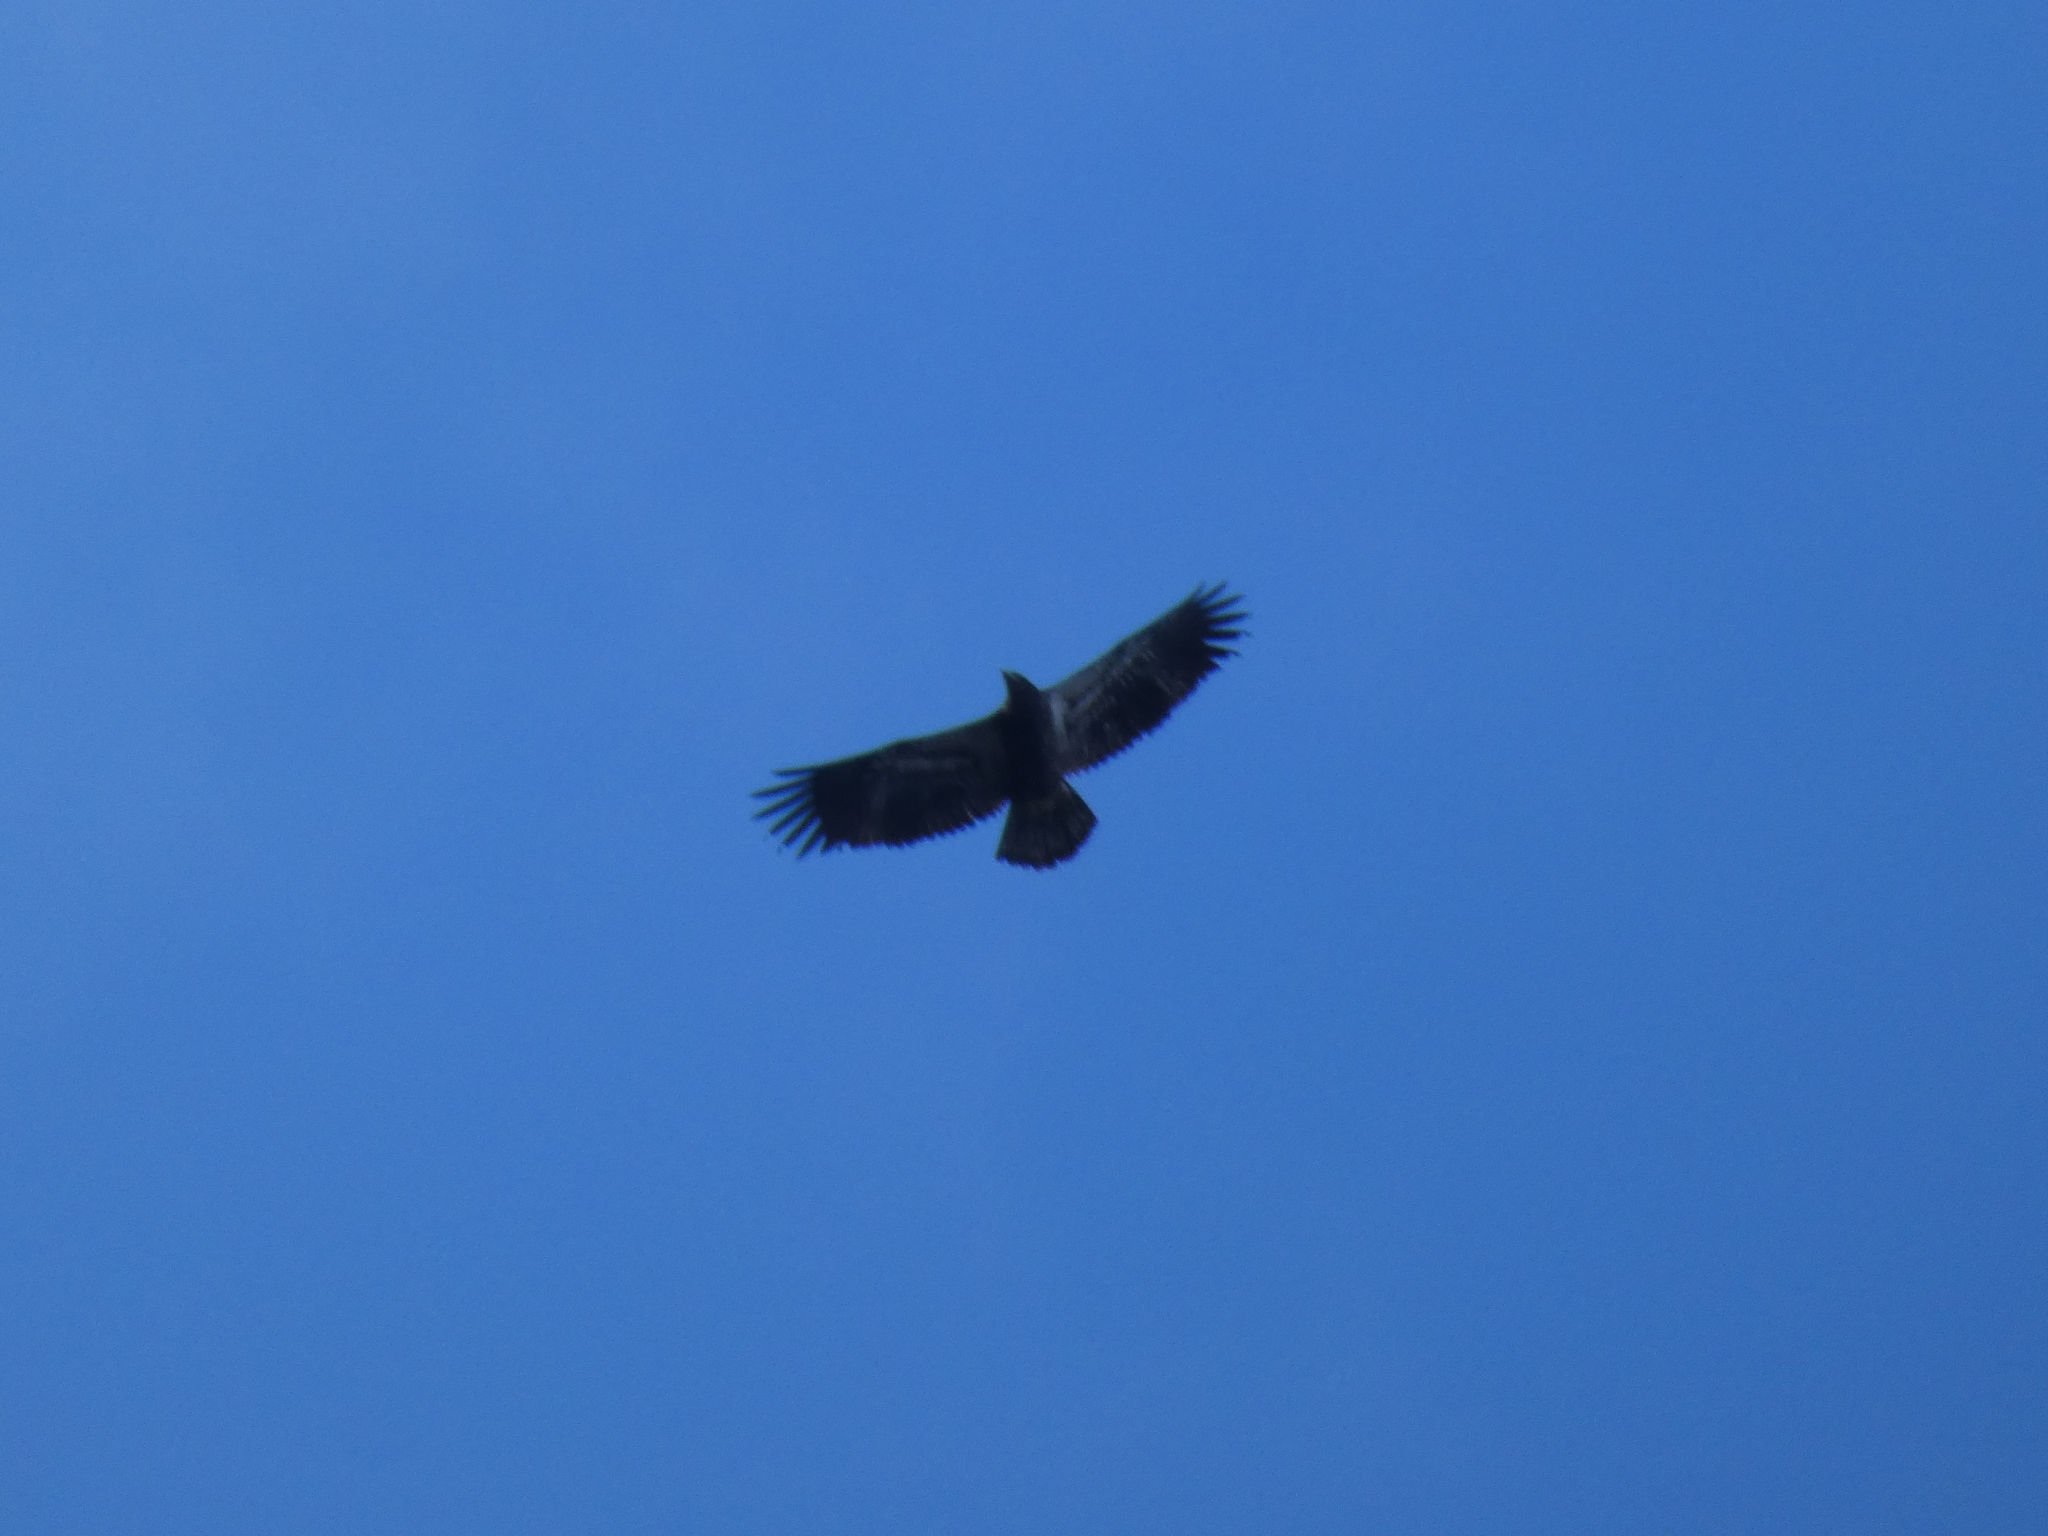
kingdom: Animalia
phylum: Chordata
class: Aves
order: Accipitriformes
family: Accipitridae
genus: Haliaeetus
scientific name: Haliaeetus leucocephalus
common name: Bald eagle
